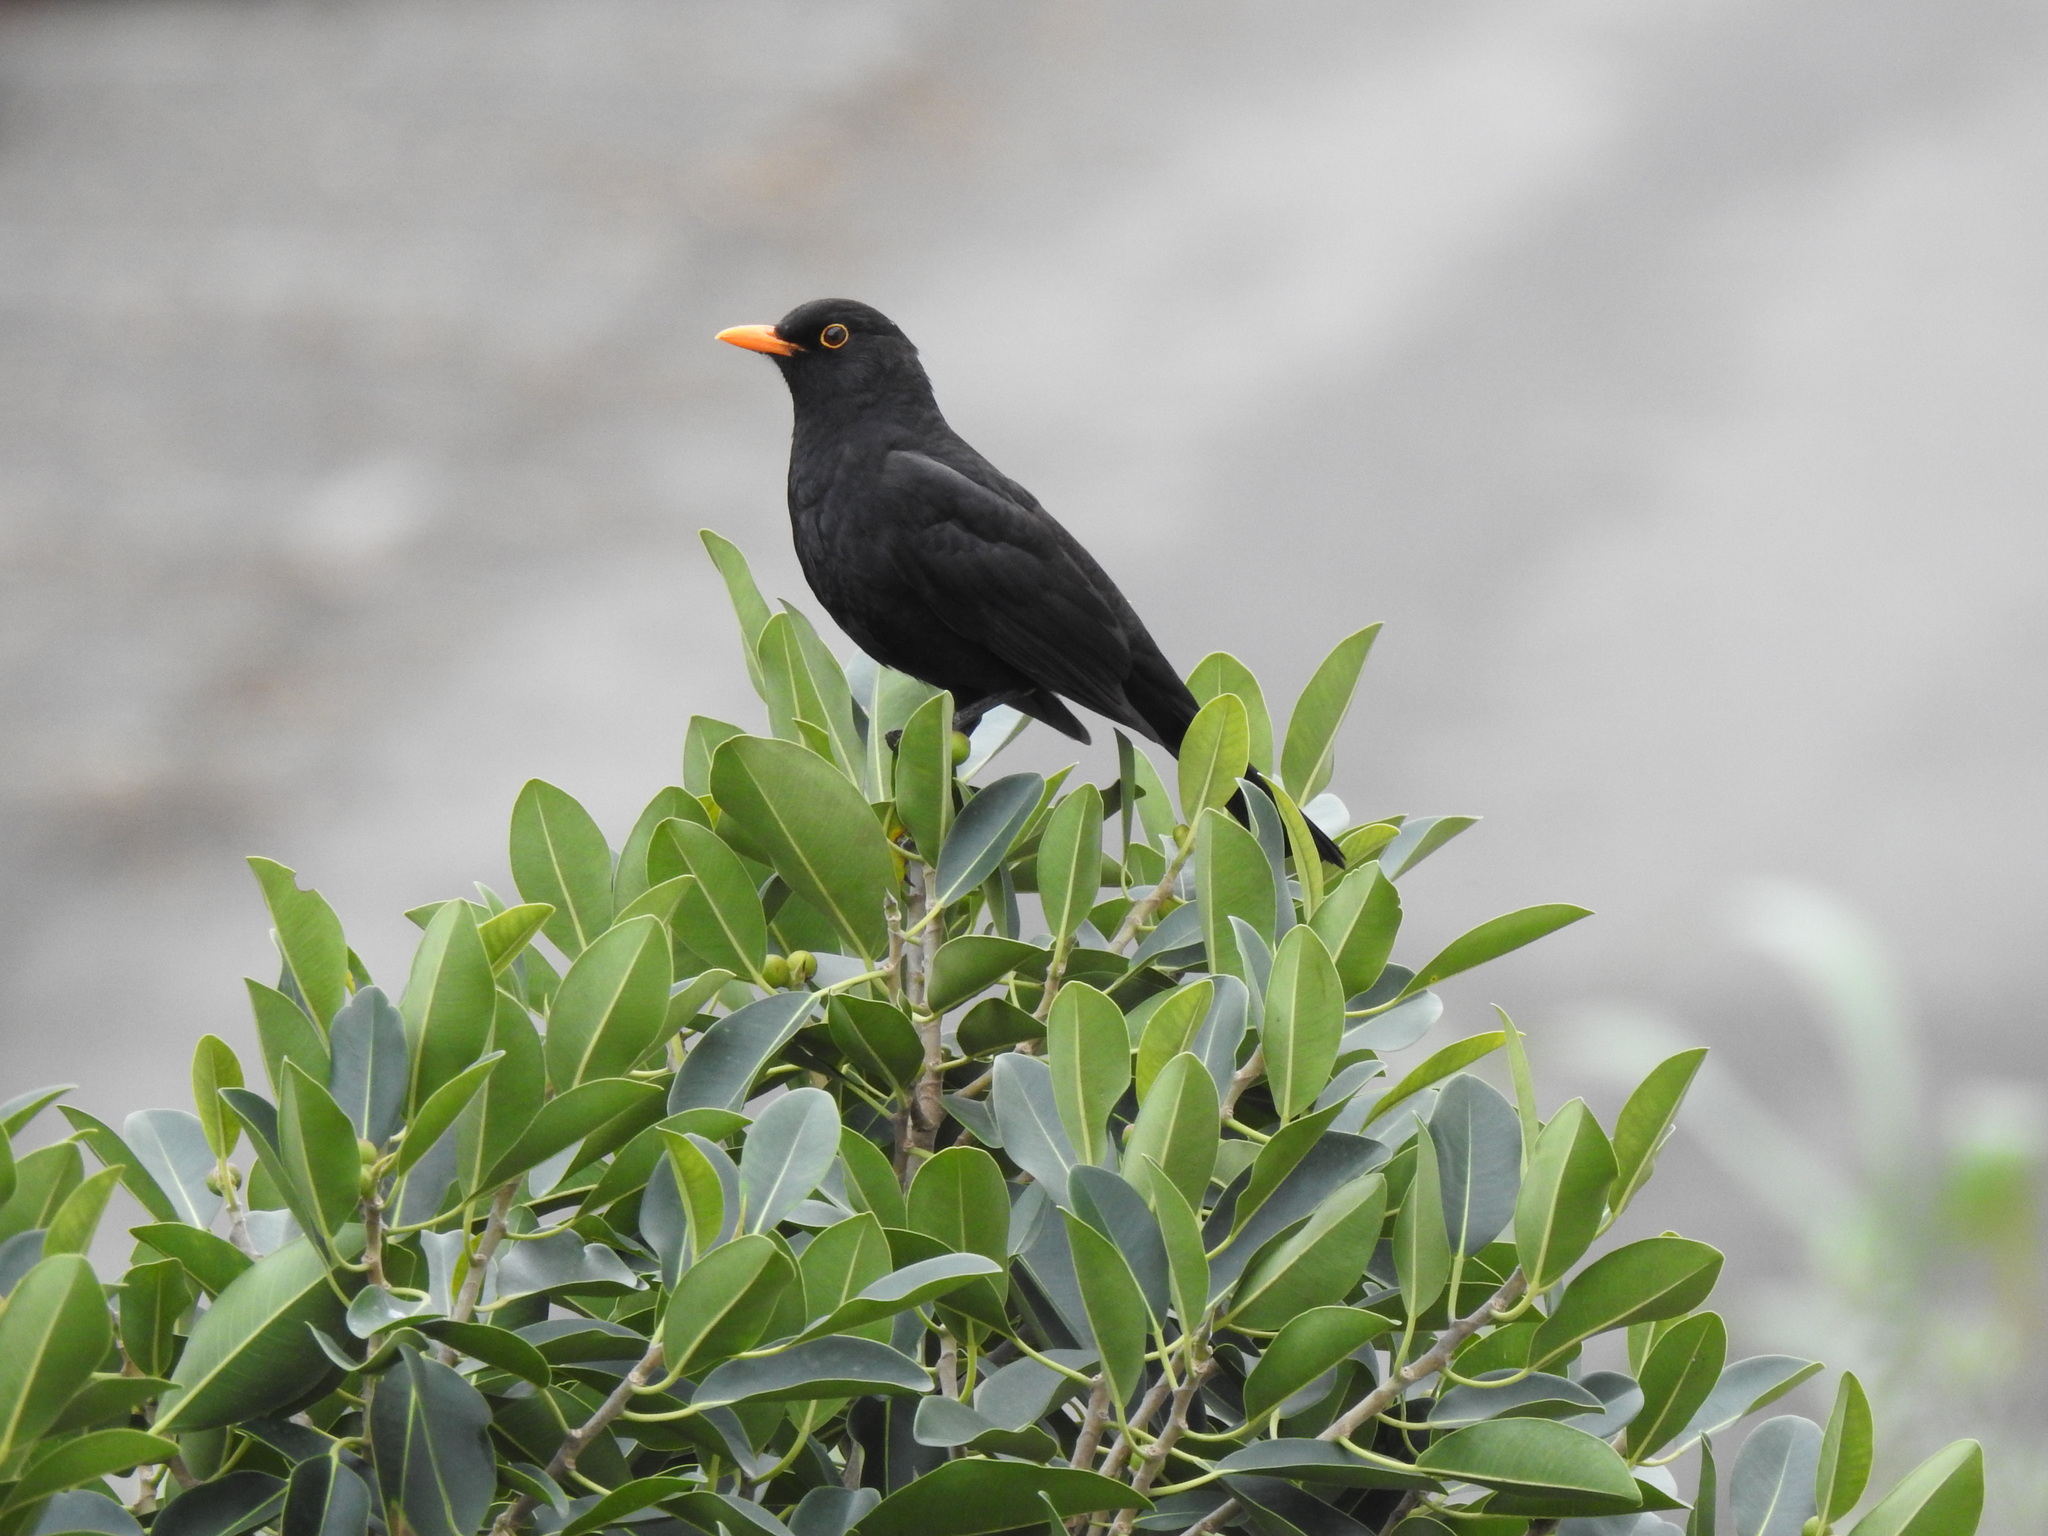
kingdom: Animalia
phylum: Chordata
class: Aves
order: Passeriformes
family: Turdidae
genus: Turdus
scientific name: Turdus merula
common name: Common blackbird
